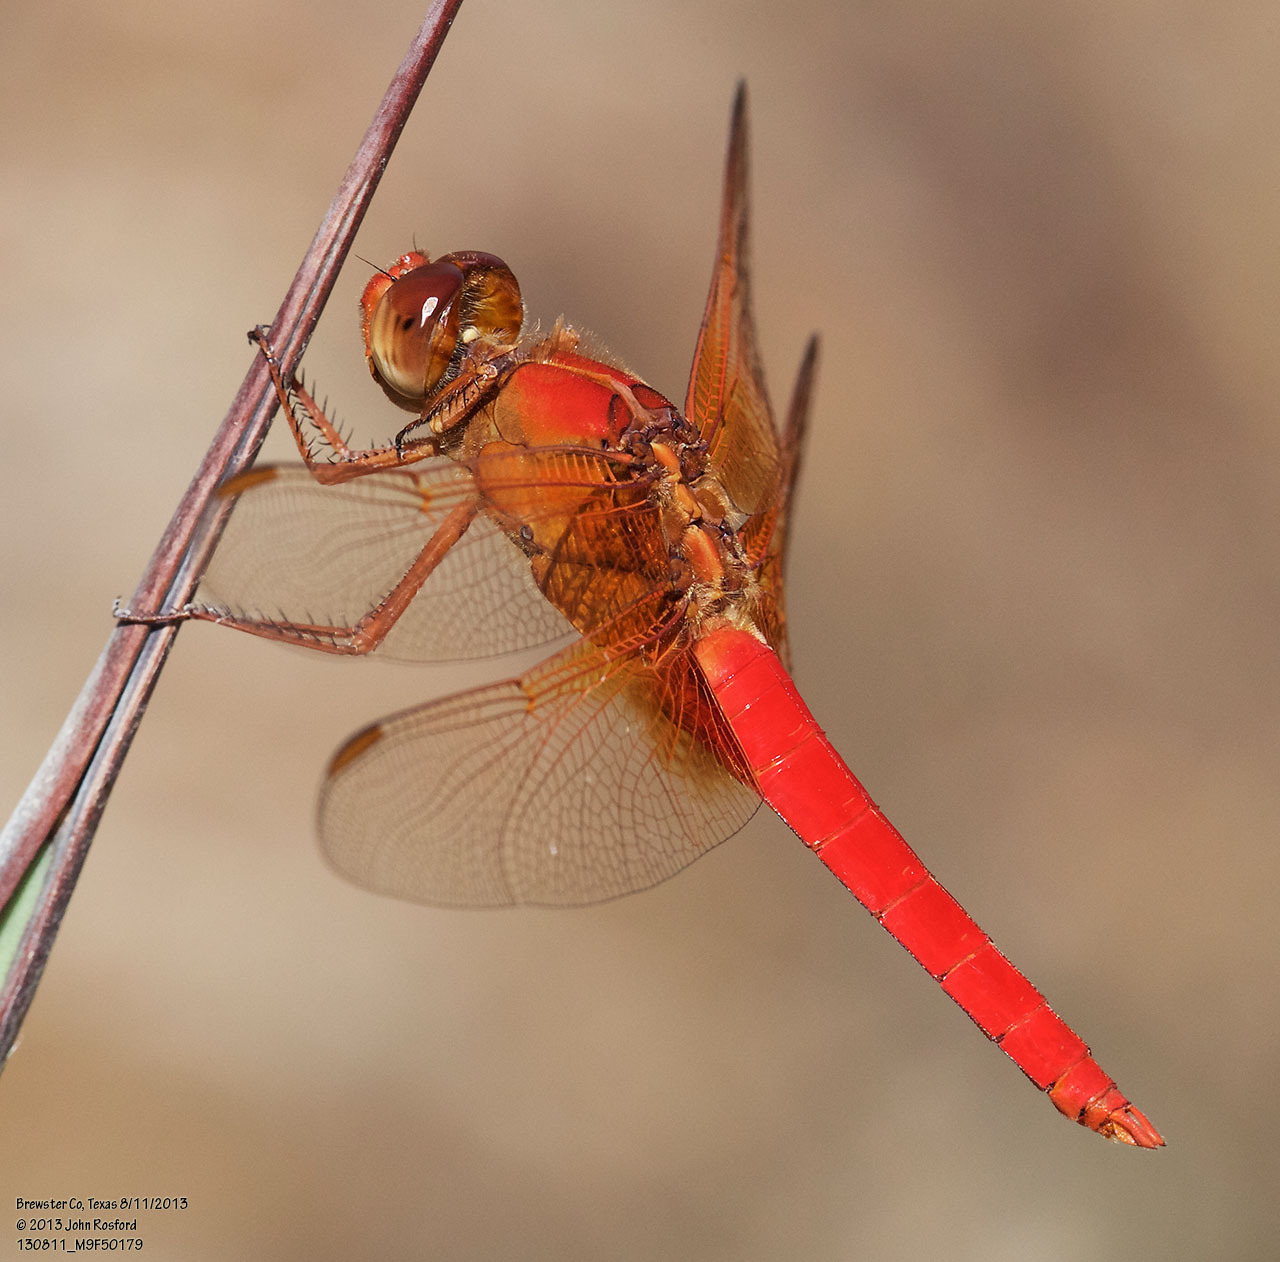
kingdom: Animalia
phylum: Arthropoda
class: Insecta
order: Odonata
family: Libellulidae
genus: Libellula
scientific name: Libellula croceipennis
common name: Neon skimmer
